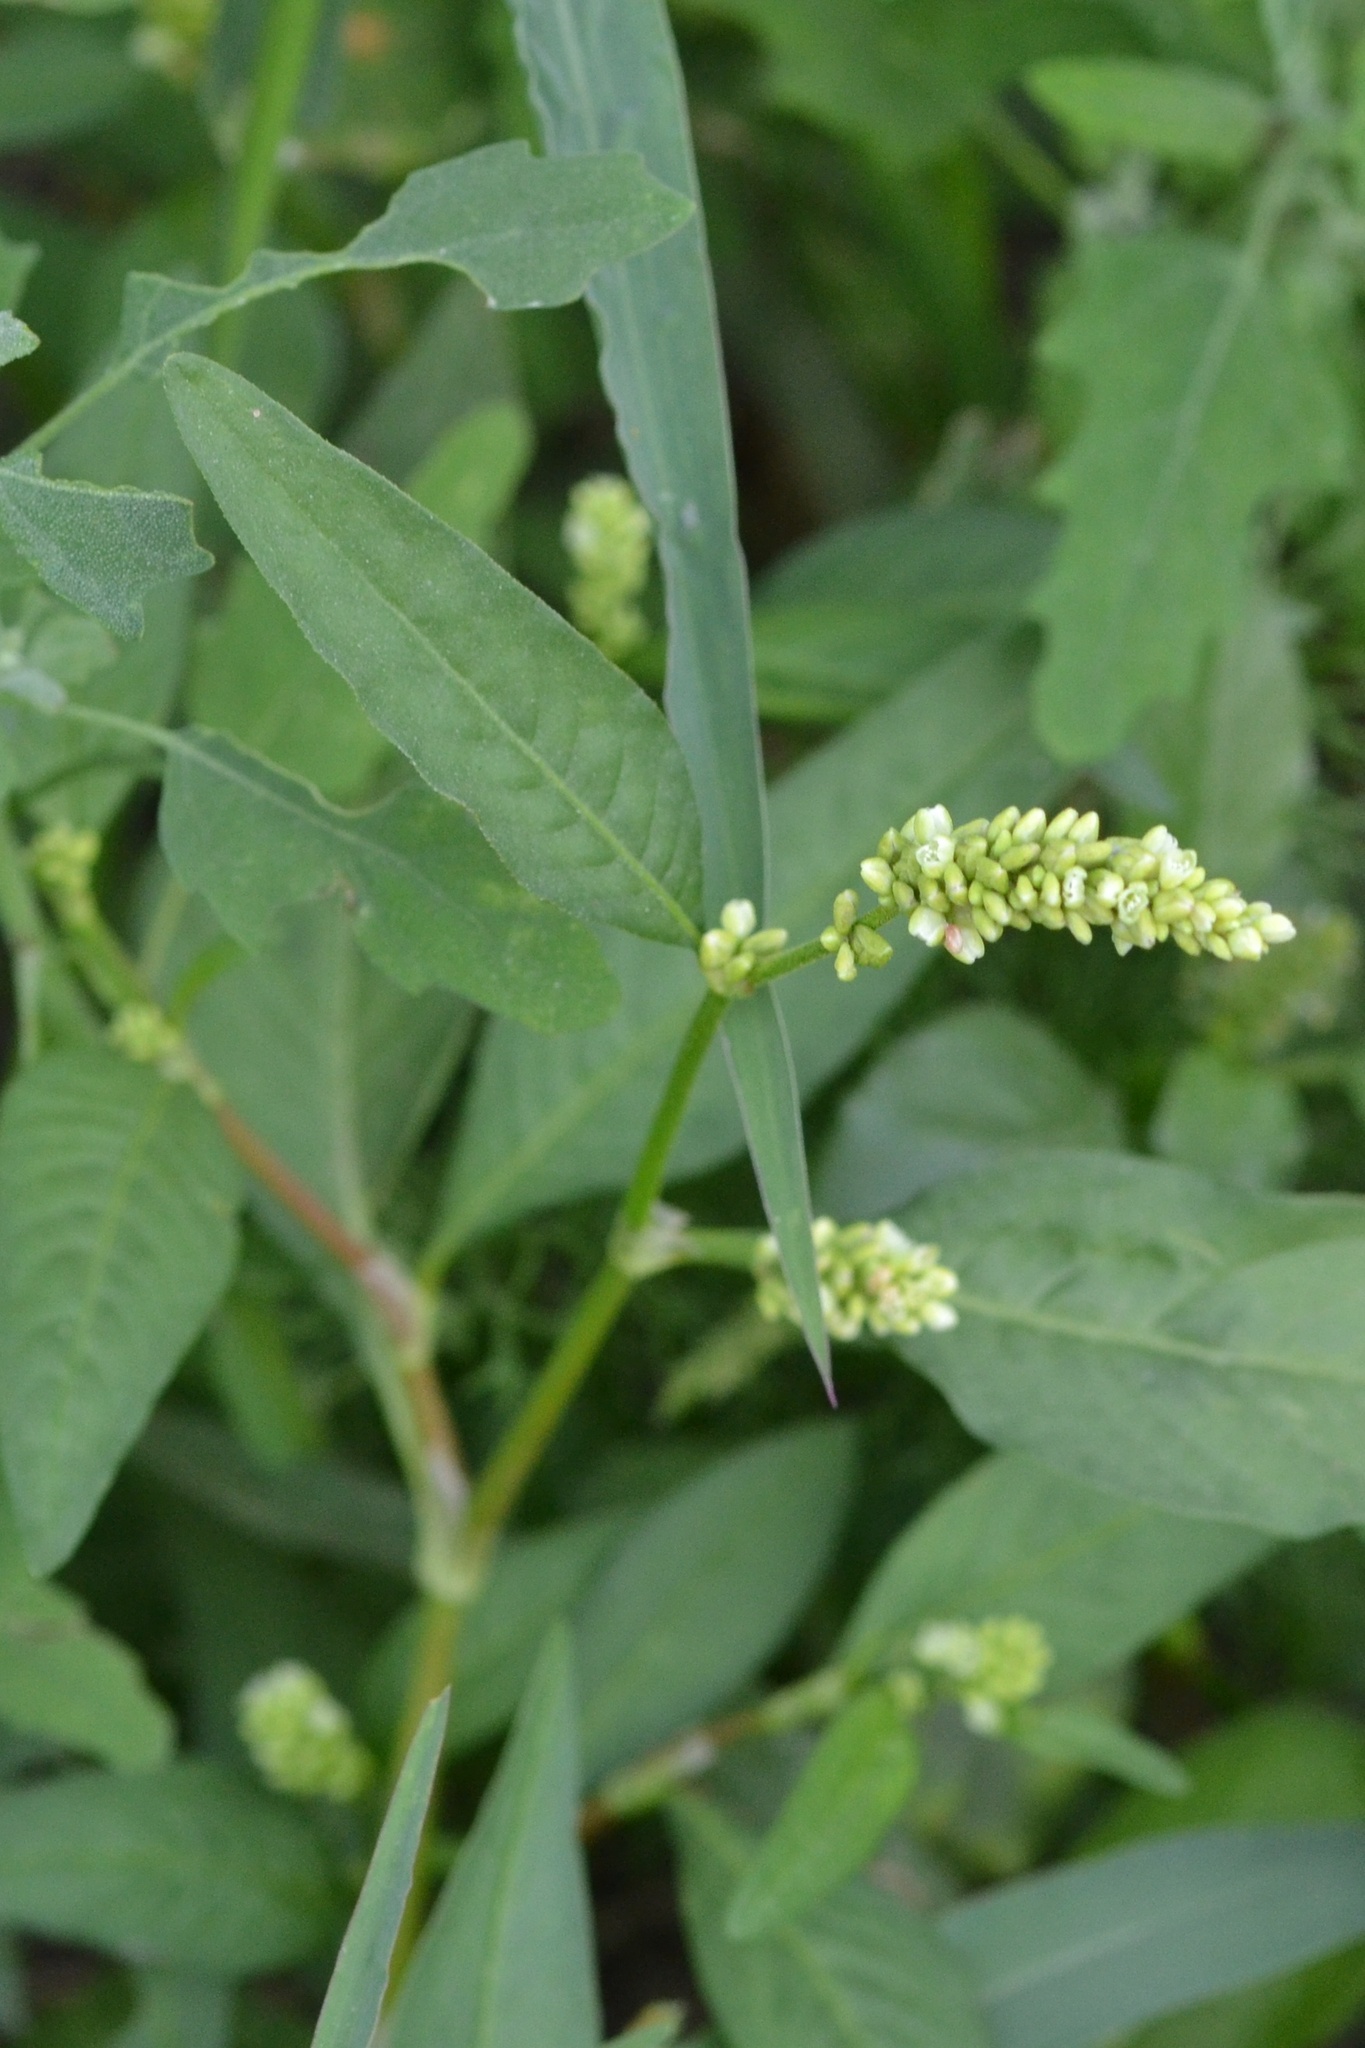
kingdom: Plantae
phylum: Tracheophyta
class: Magnoliopsida
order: Caryophyllales
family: Polygonaceae
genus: Persicaria
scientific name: Persicaria lapathifolia
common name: Curlytop knotweed
